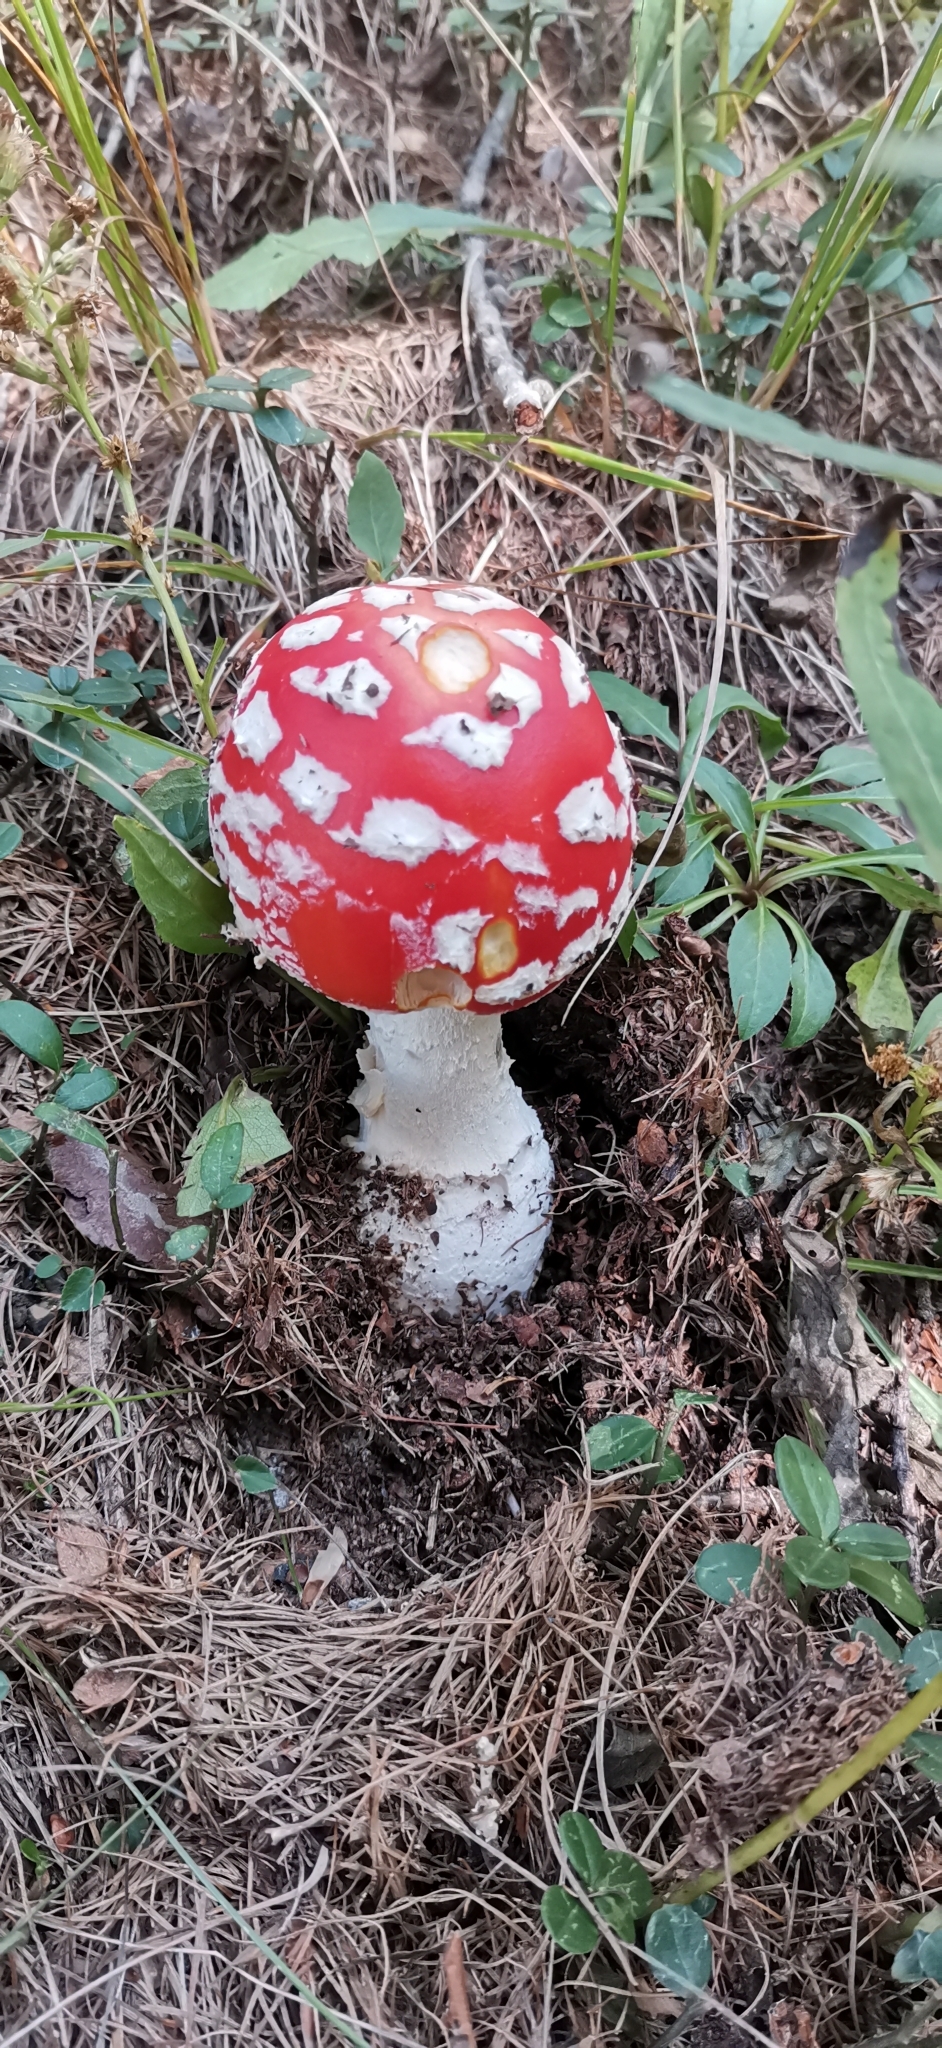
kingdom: Fungi
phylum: Basidiomycota
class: Agaricomycetes
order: Agaricales
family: Amanitaceae
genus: Amanita
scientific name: Amanita muscaria
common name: Fly agaric
